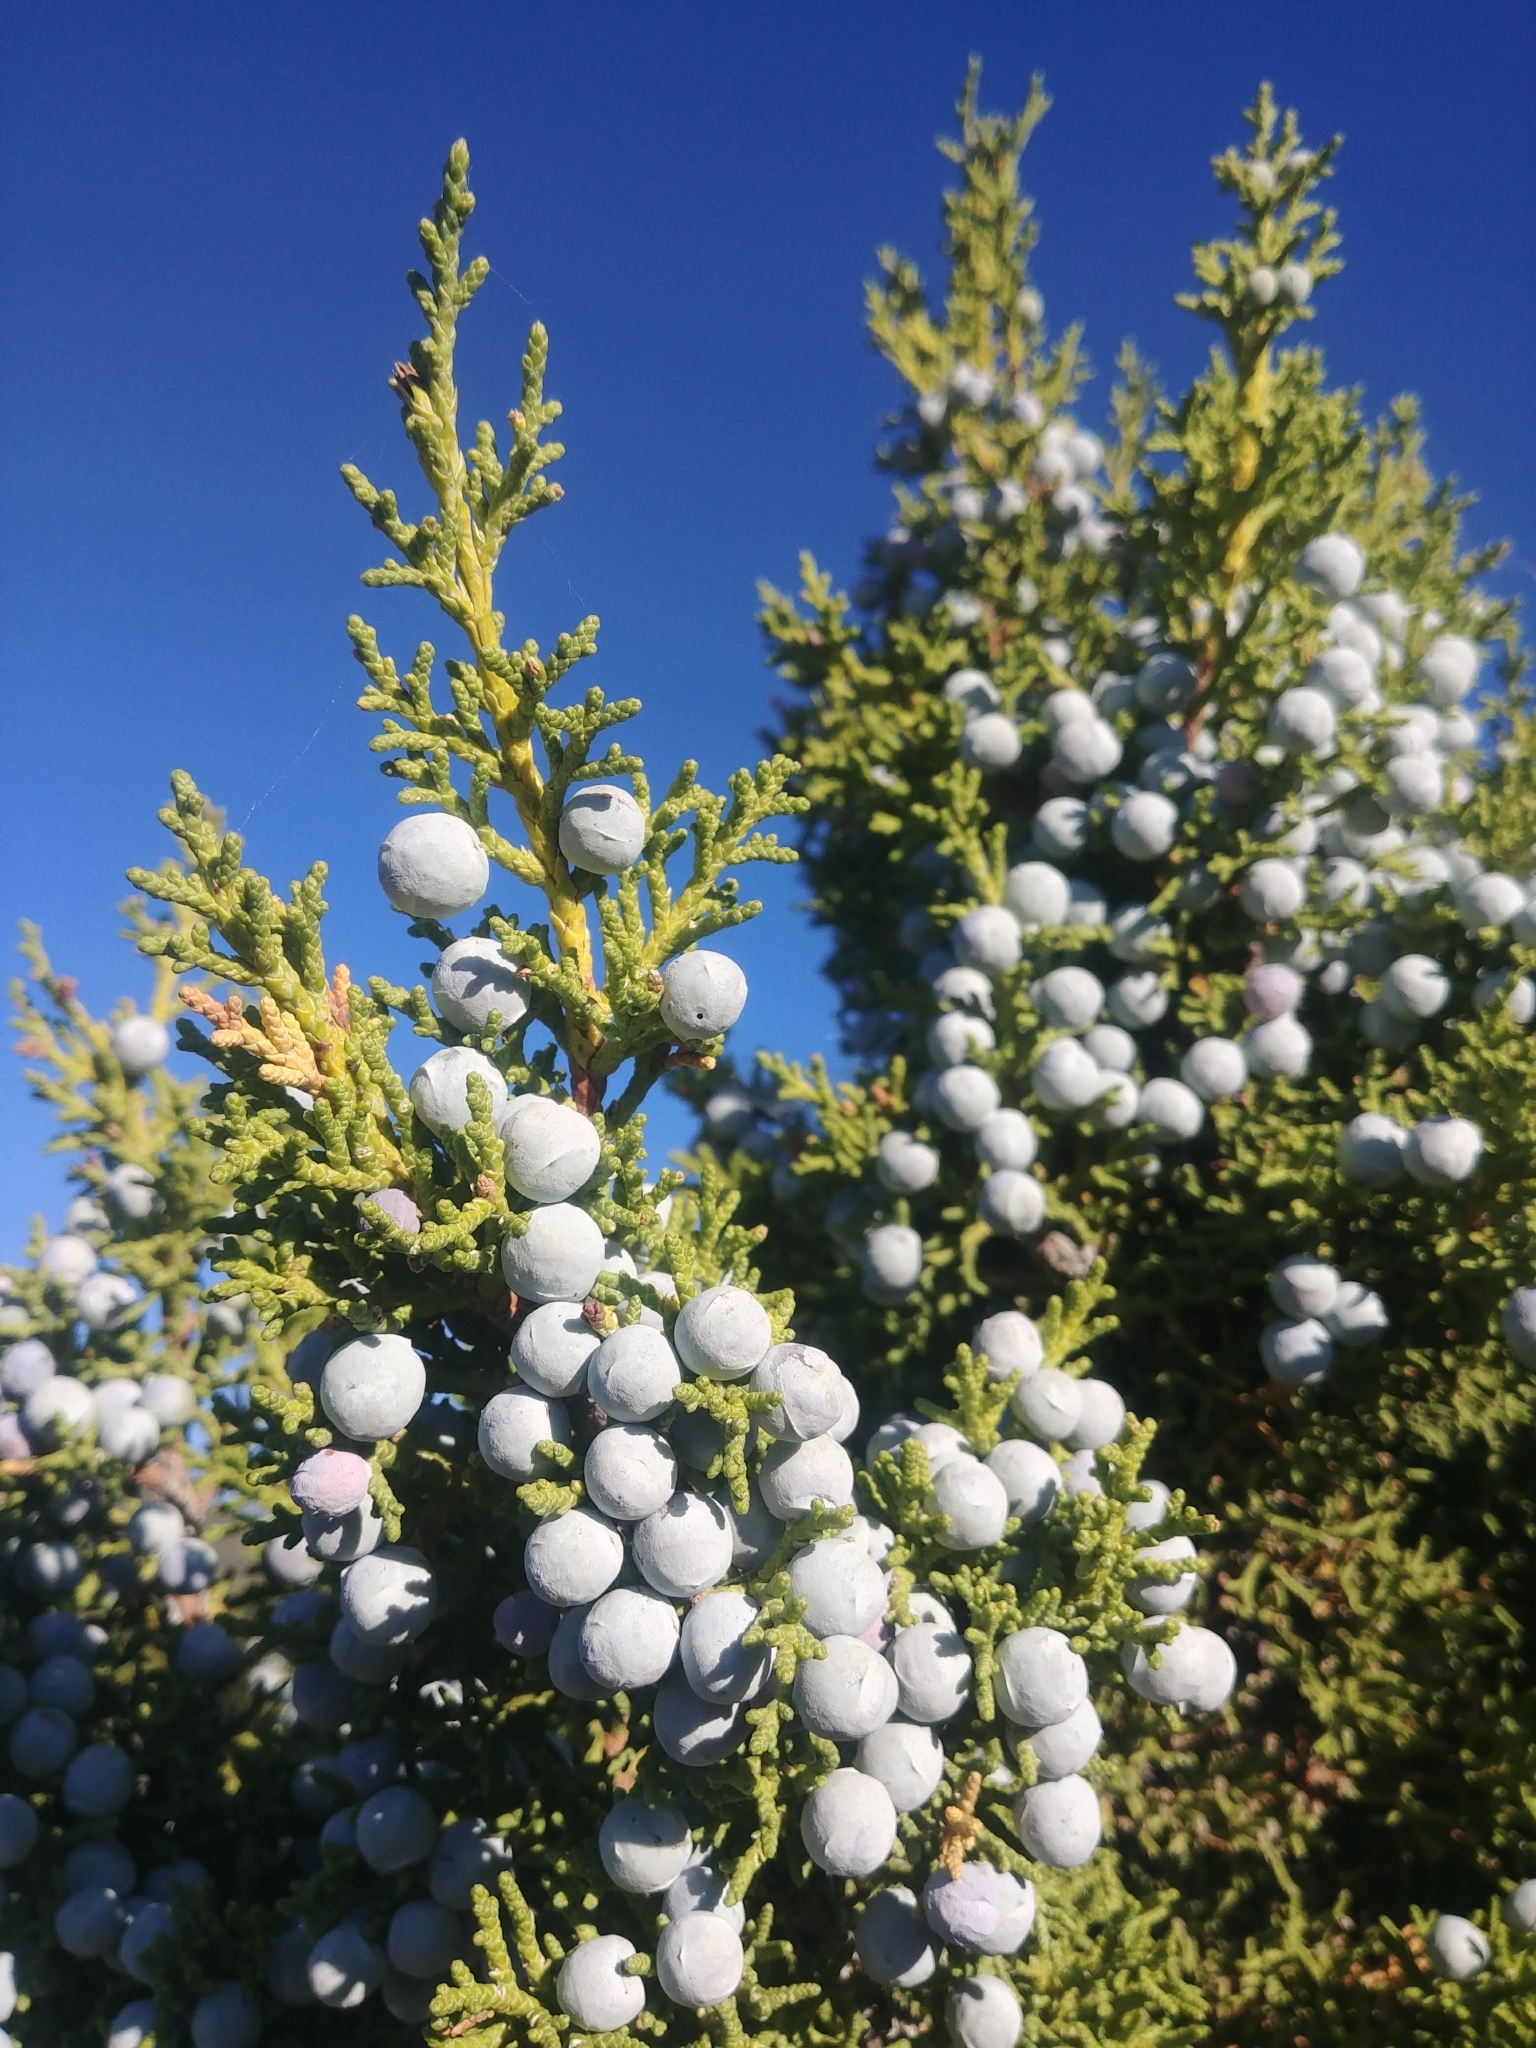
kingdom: Plantae
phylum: Tracheophyta
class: Pinopsida
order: Pinales
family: Cupressaceae
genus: Juniperus
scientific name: Juniperus osteosperma
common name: Utah juniper
